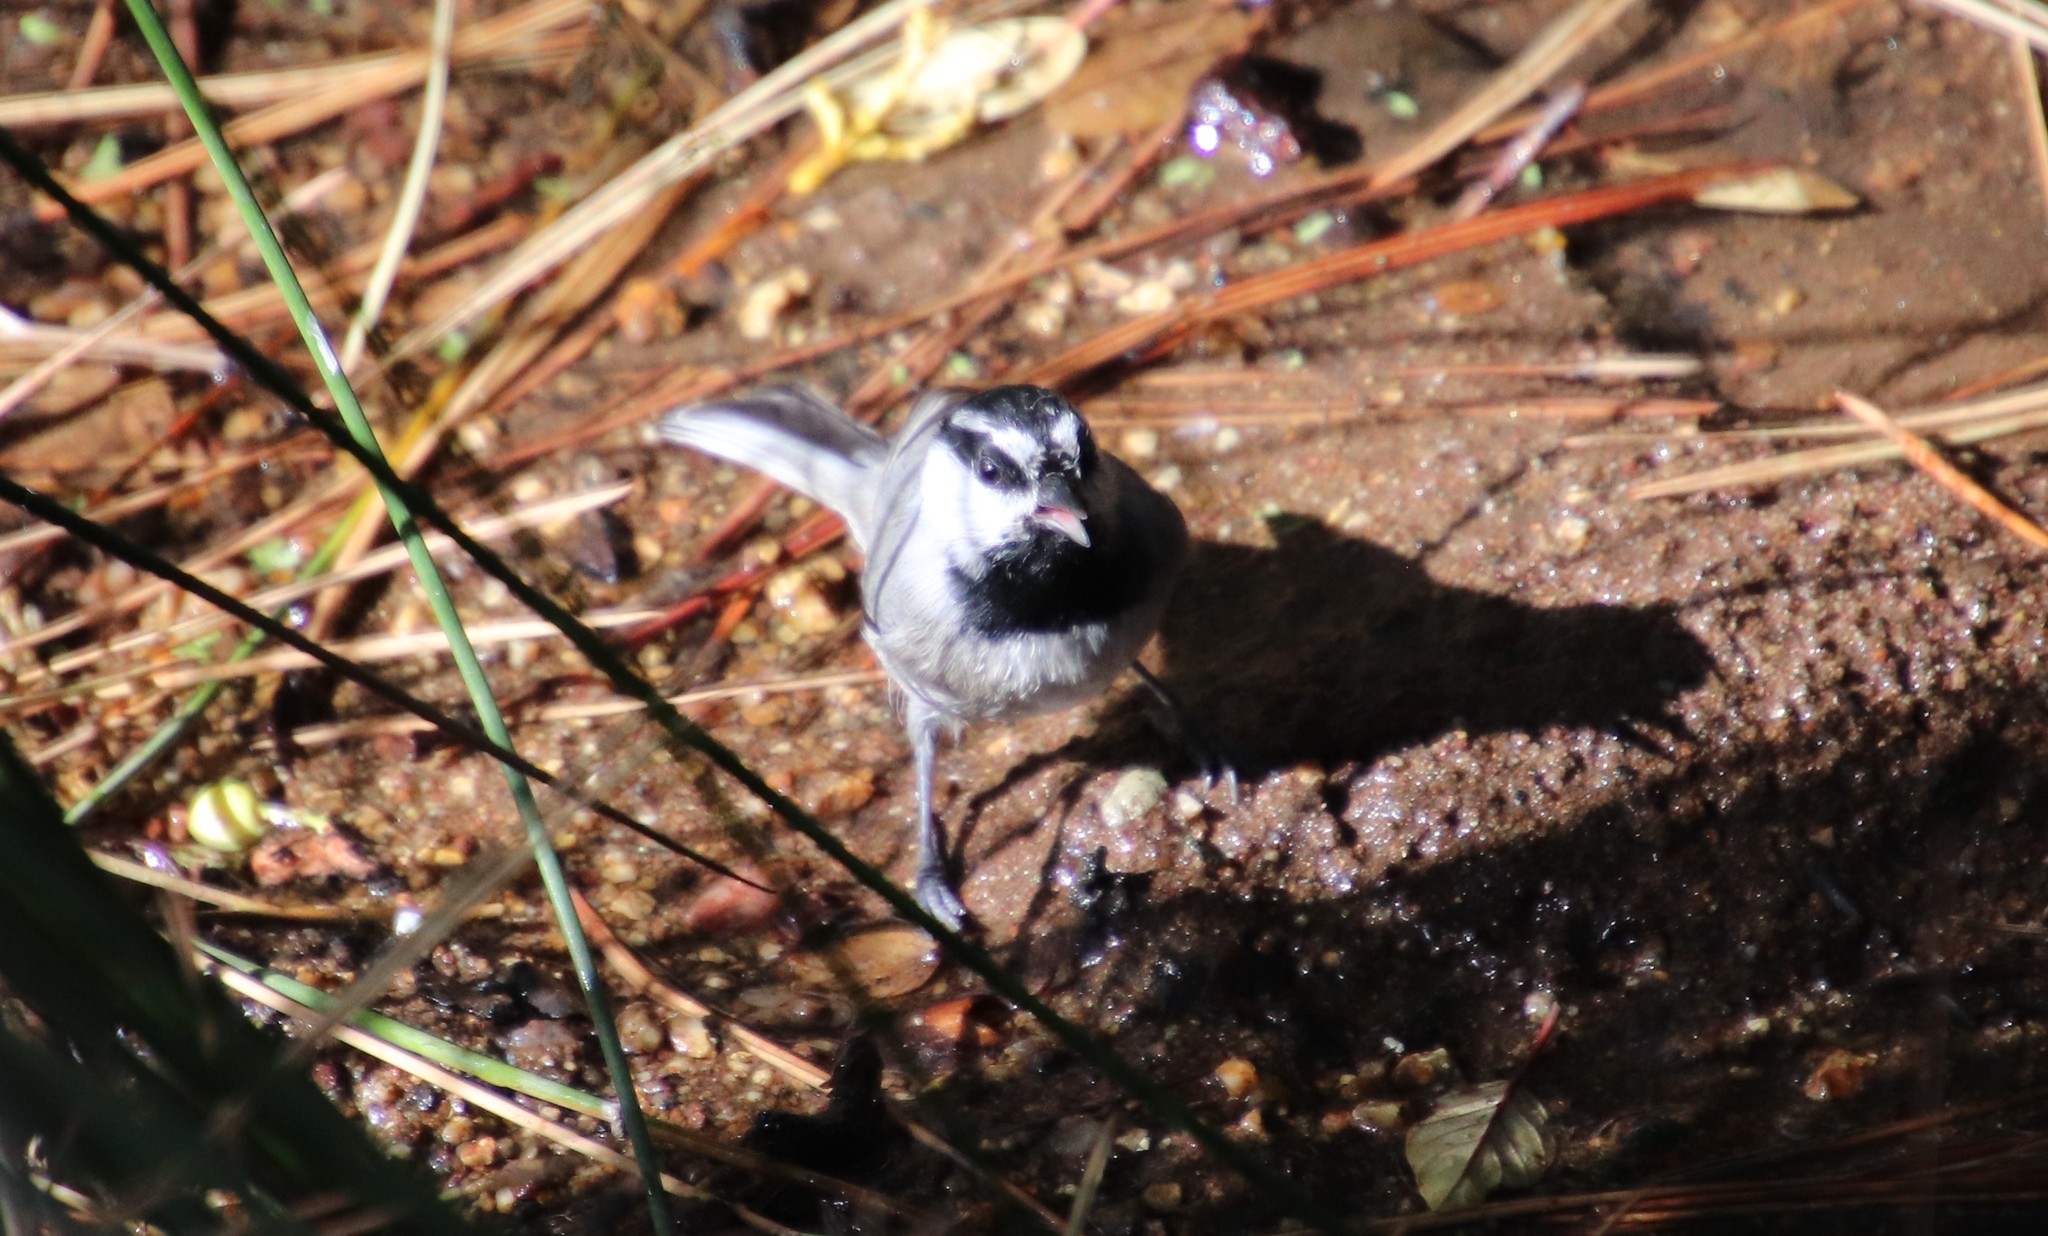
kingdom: Animalia
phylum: Chordata
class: Aves
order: Passeriformes
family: Paridae
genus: Poecile
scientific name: Poecile gambeli
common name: Mountain chickadee
